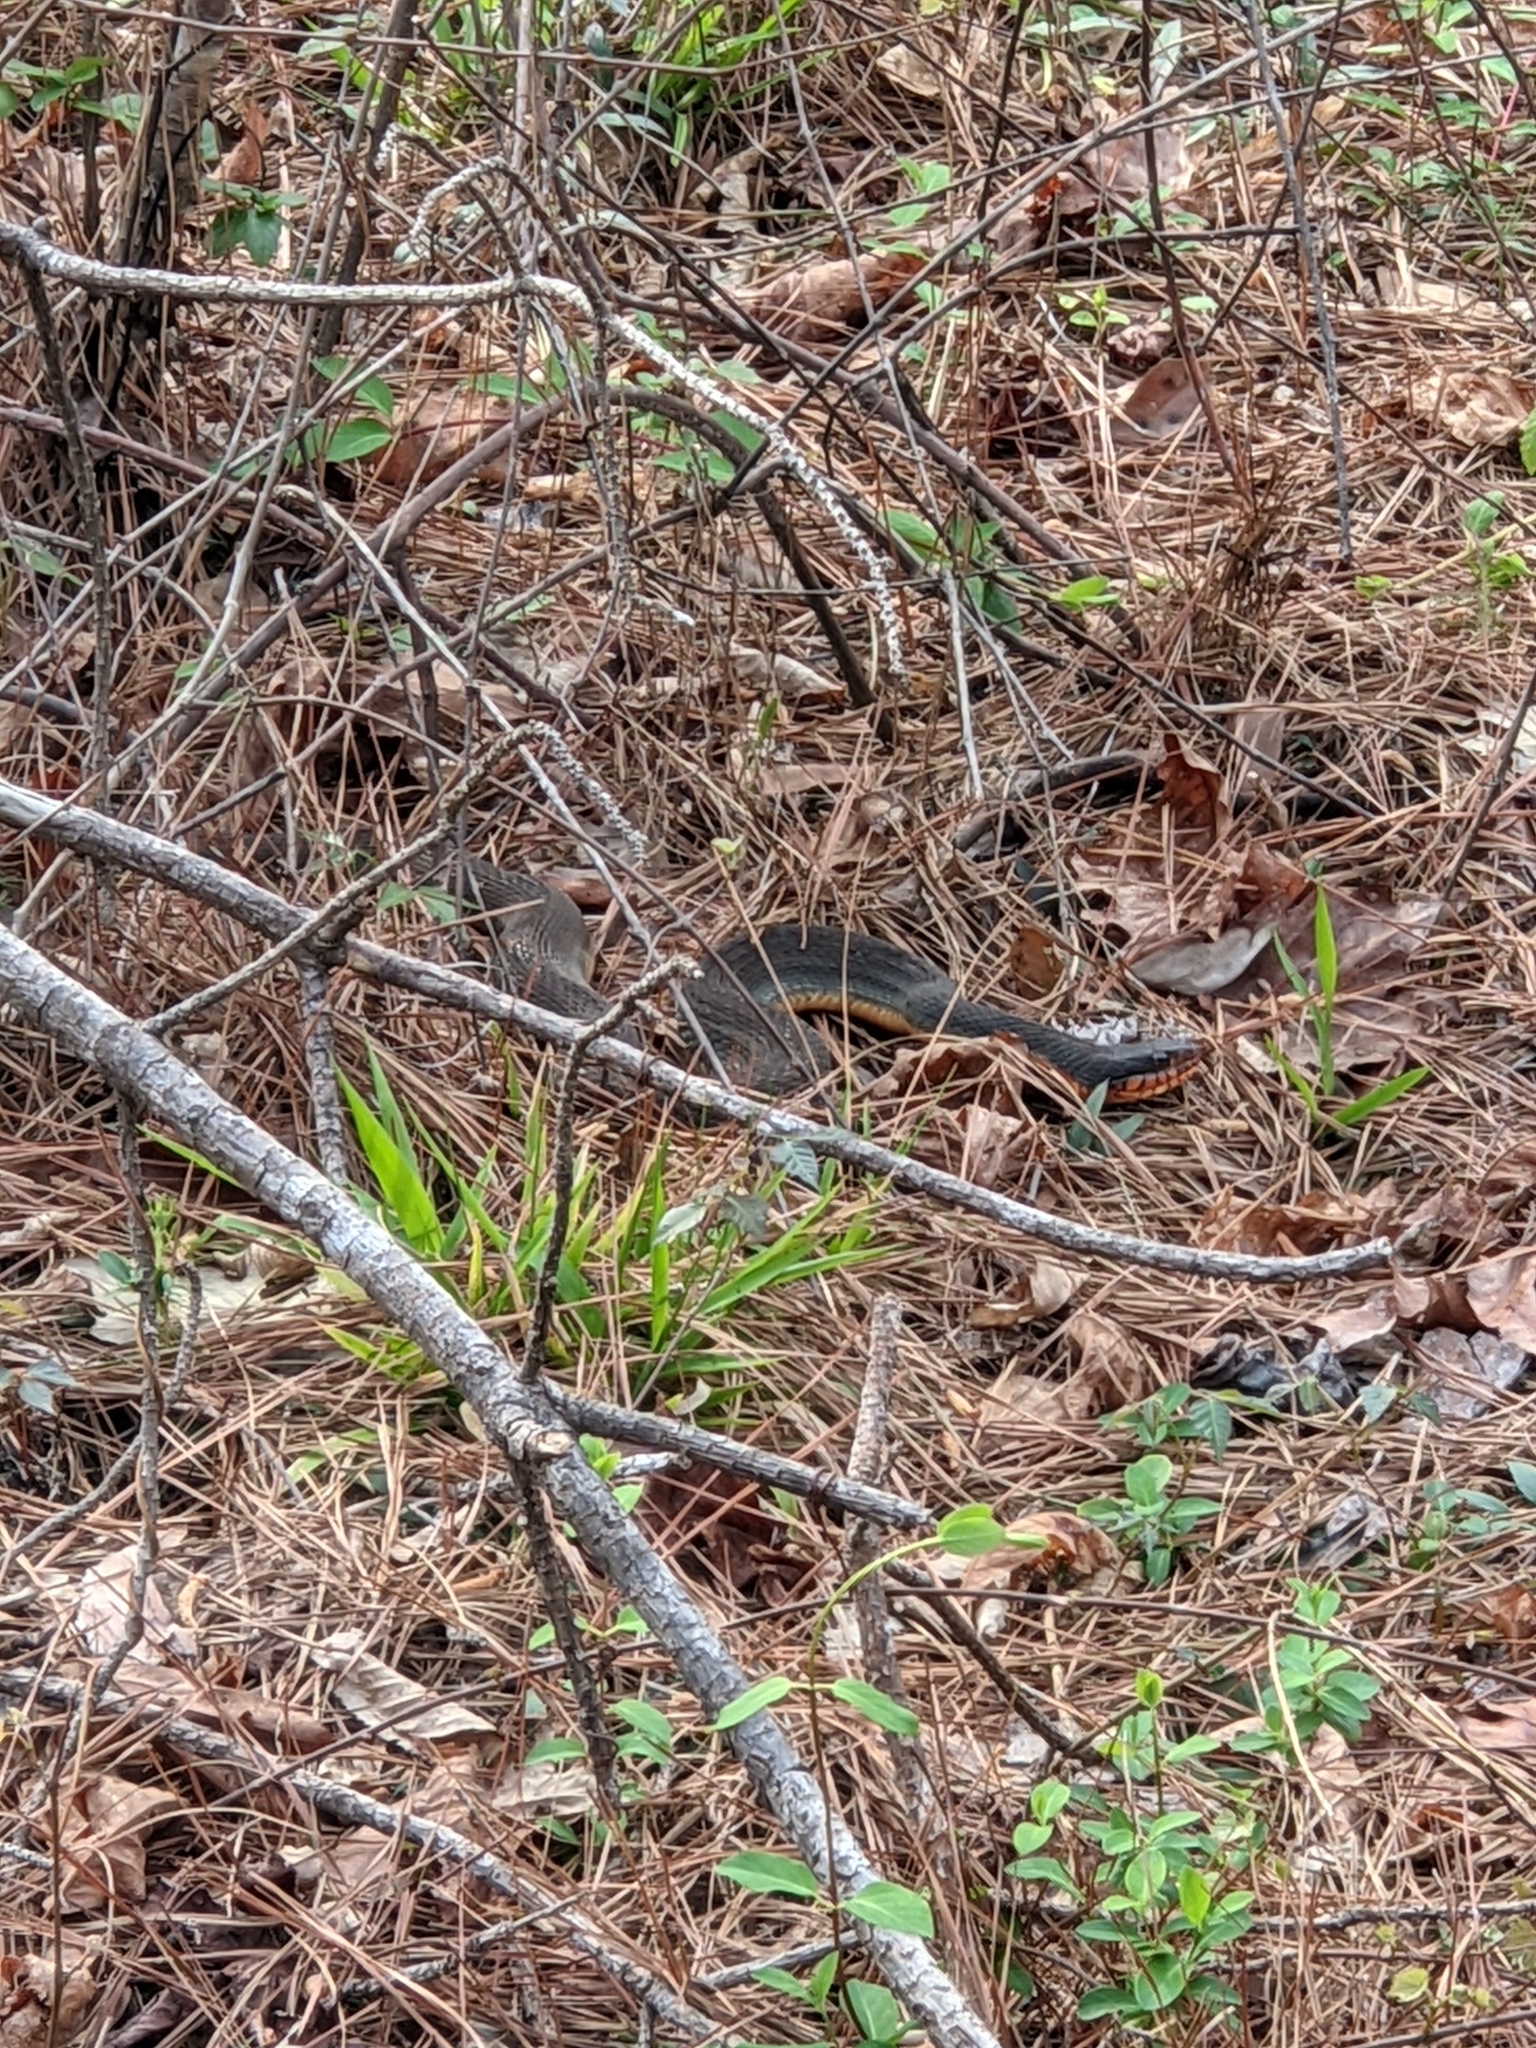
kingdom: Animalia
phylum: Chordata
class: Squamata
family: Colubridae
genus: Nerodia
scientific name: Nerodia erythrogaster
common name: Plainbelly water snake
